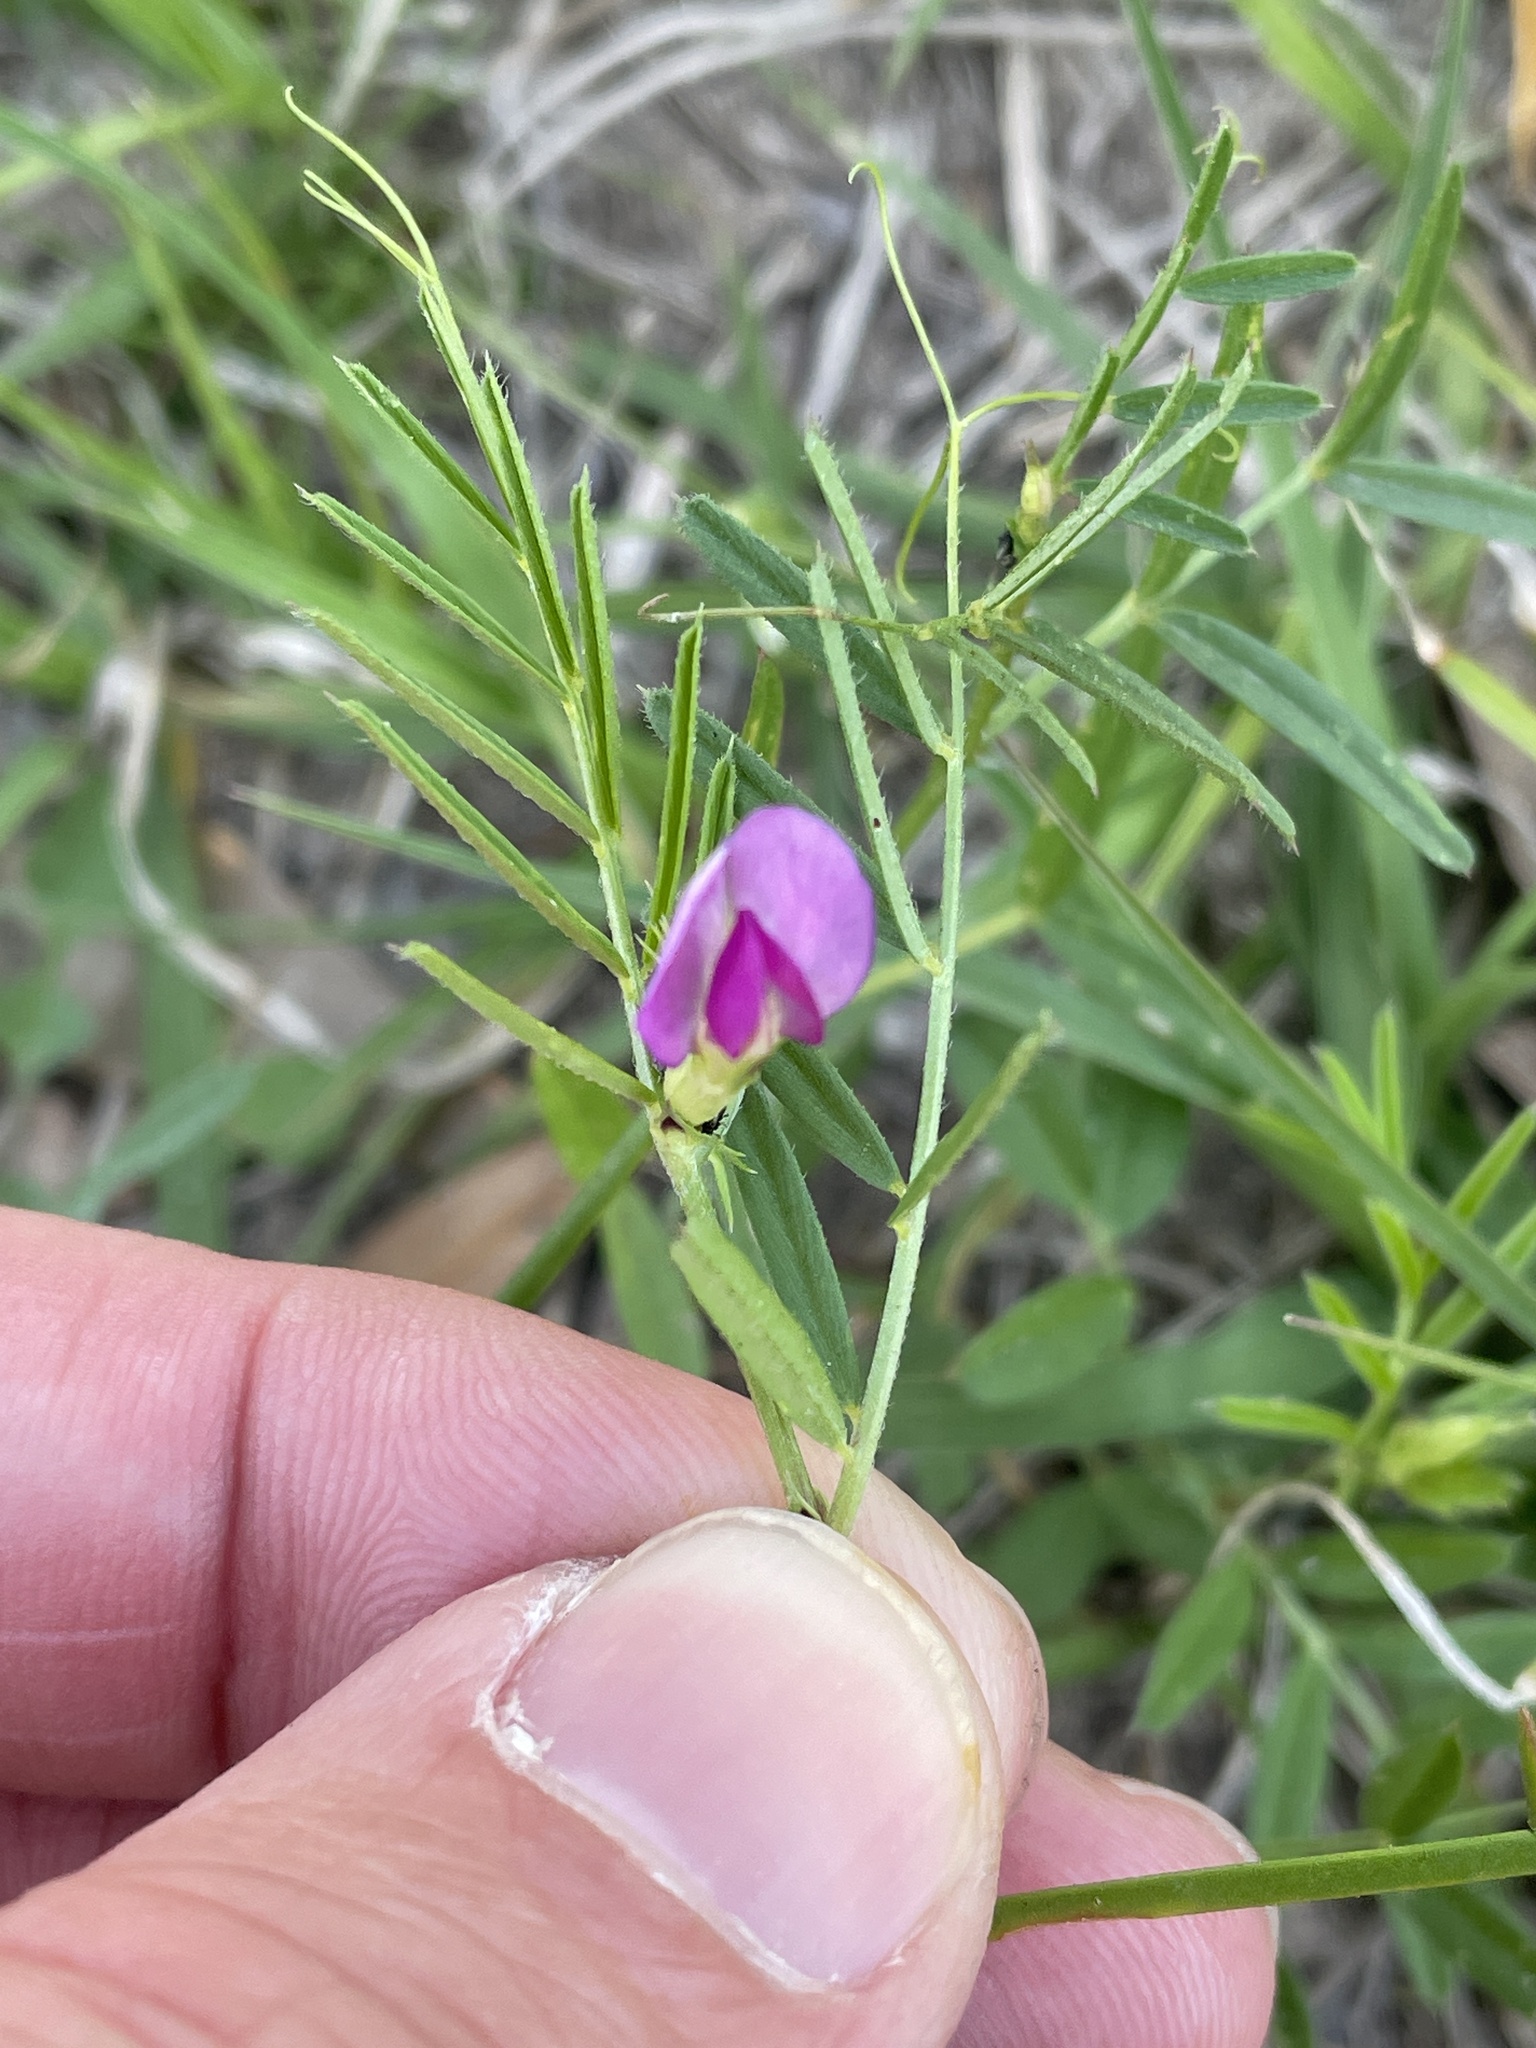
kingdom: Plantae
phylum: Tracheophyta
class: Magnoliopsida
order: Fabales
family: Fabaceae
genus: Vicia
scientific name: Vicia sativa
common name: Garden vetch
